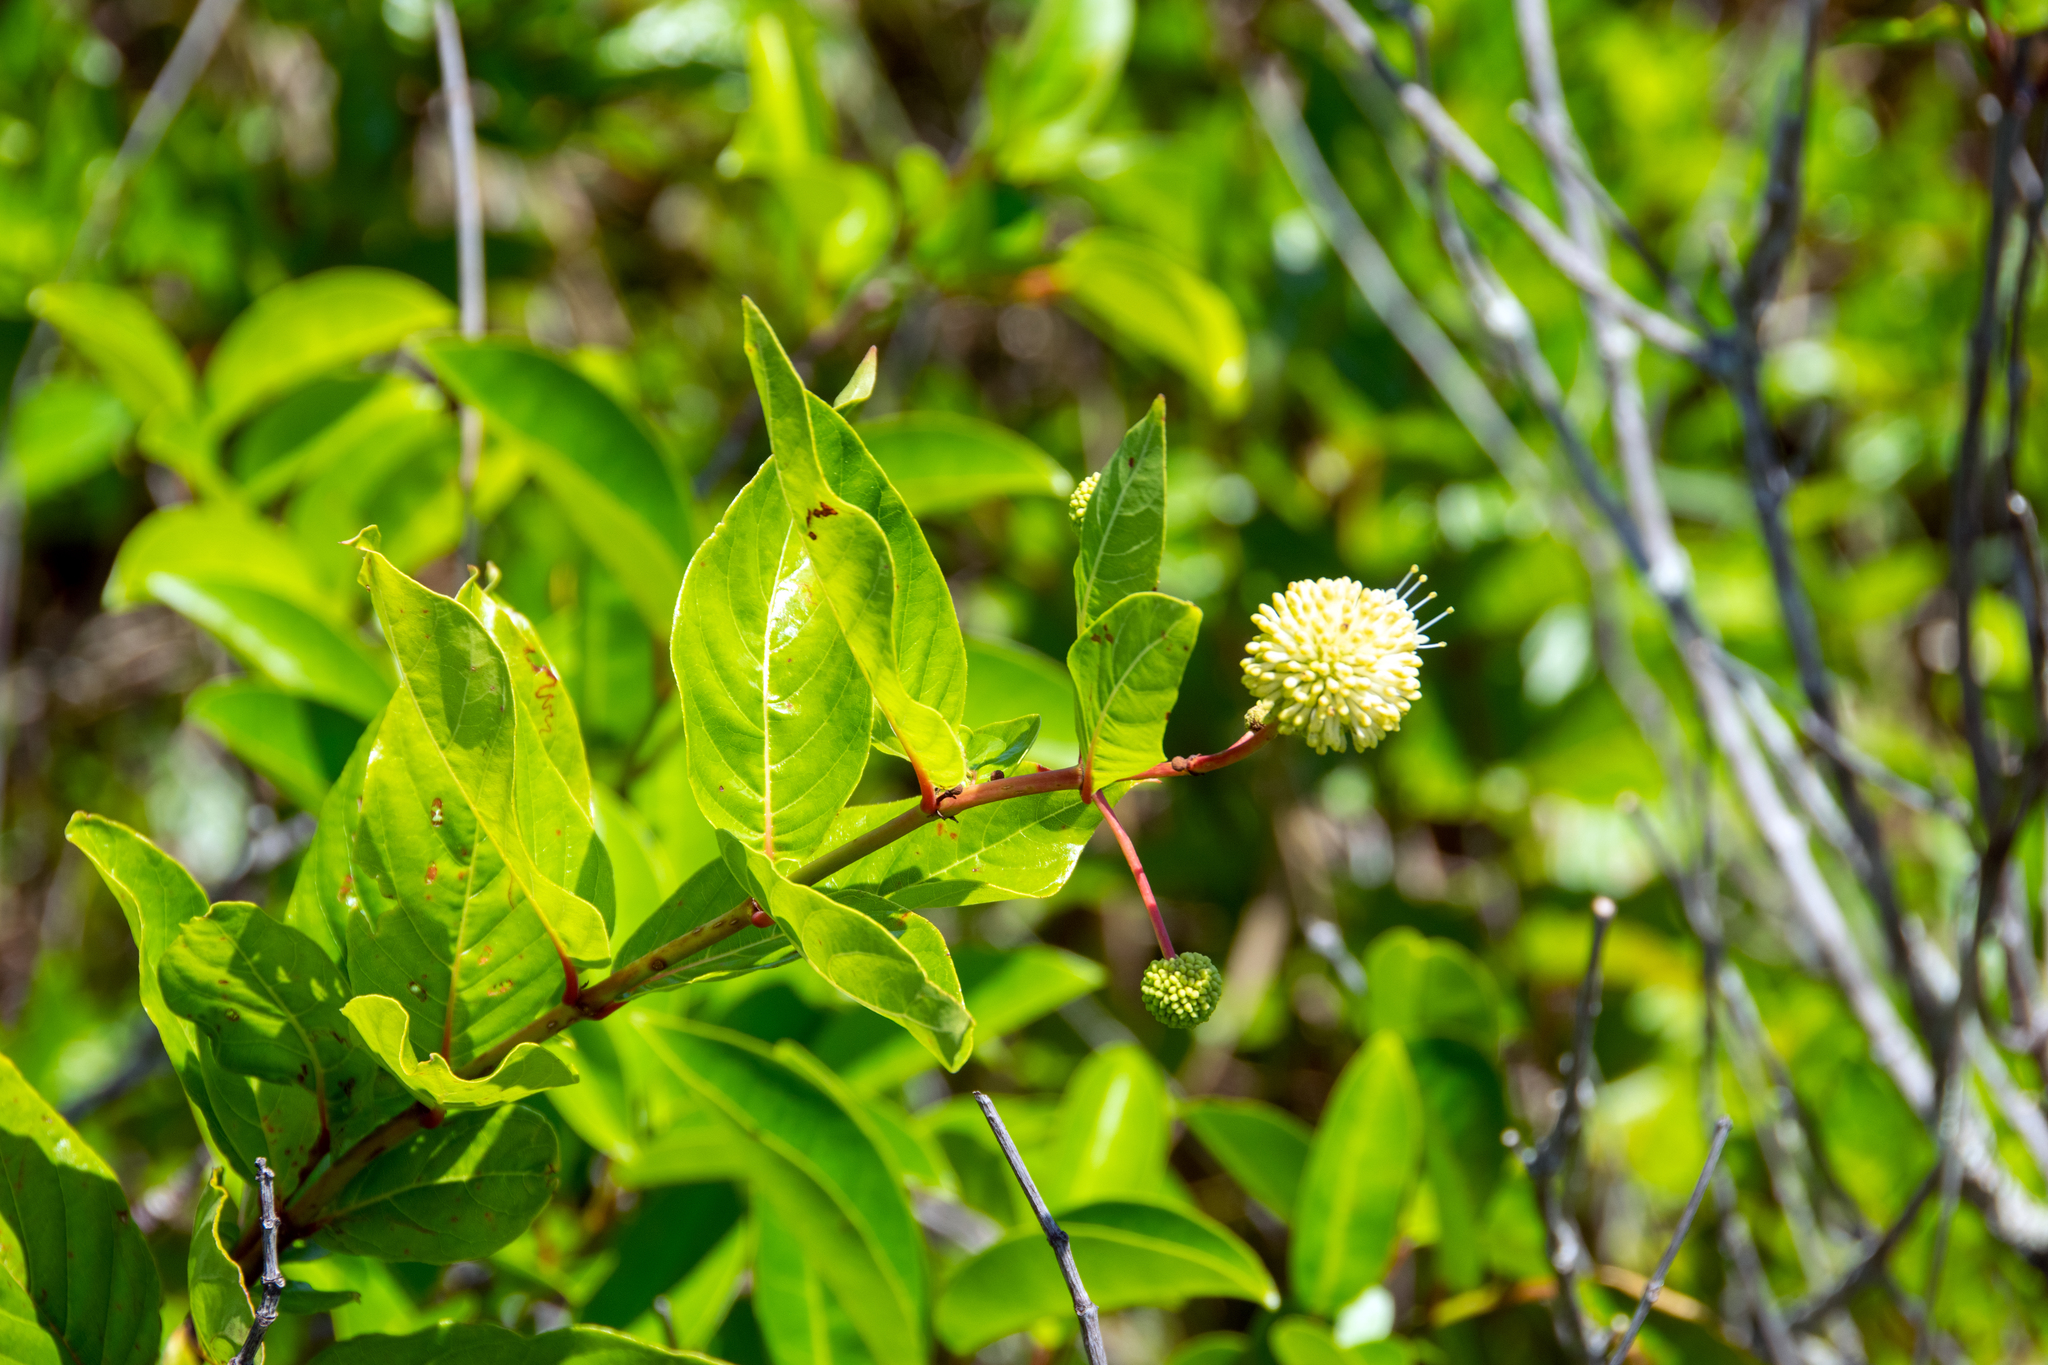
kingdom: Plantae
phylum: Tracheophyta
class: Magnoliopsida
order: Gentianales
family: Rubiaceae
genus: Cephalanthus
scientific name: Cephalanthus occidentalis
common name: Button-willow
